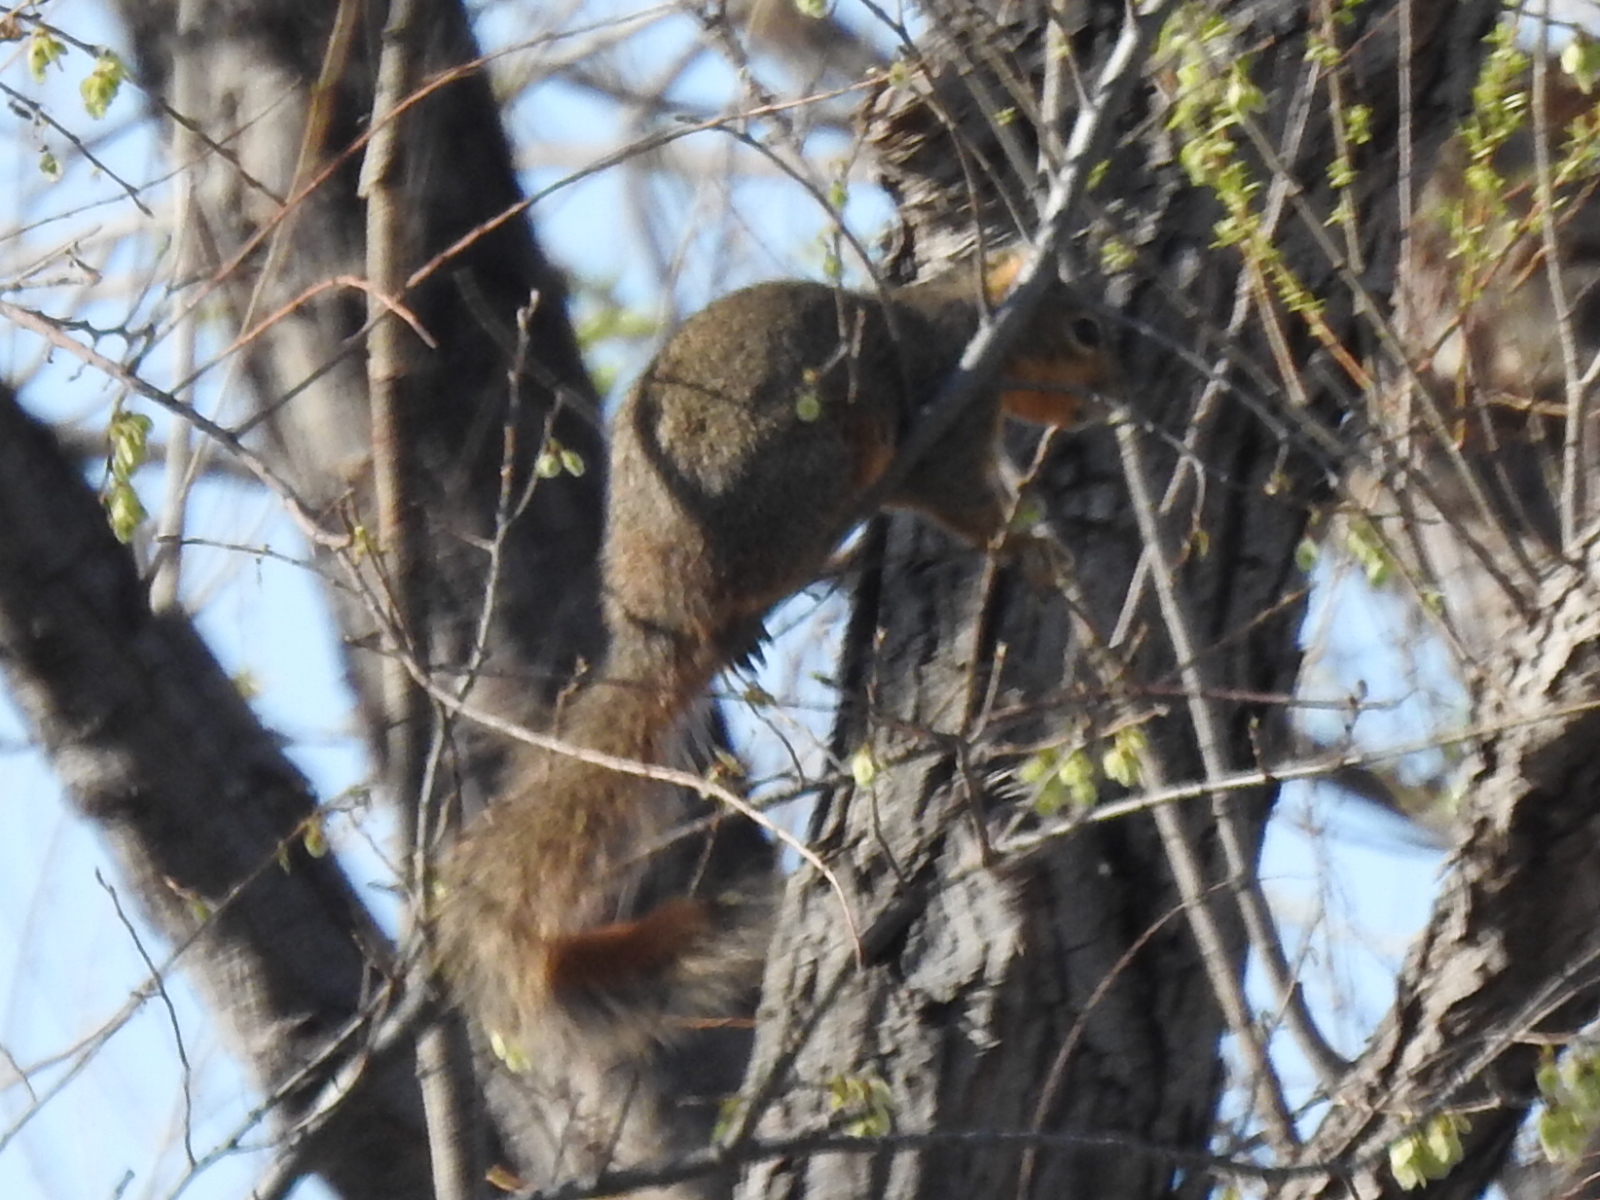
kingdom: Animalia
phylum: Chordata
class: Mammalia
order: Rodentia
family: Sciuridae
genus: Sciurus
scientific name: Sciurus niger
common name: Fox squirrel
